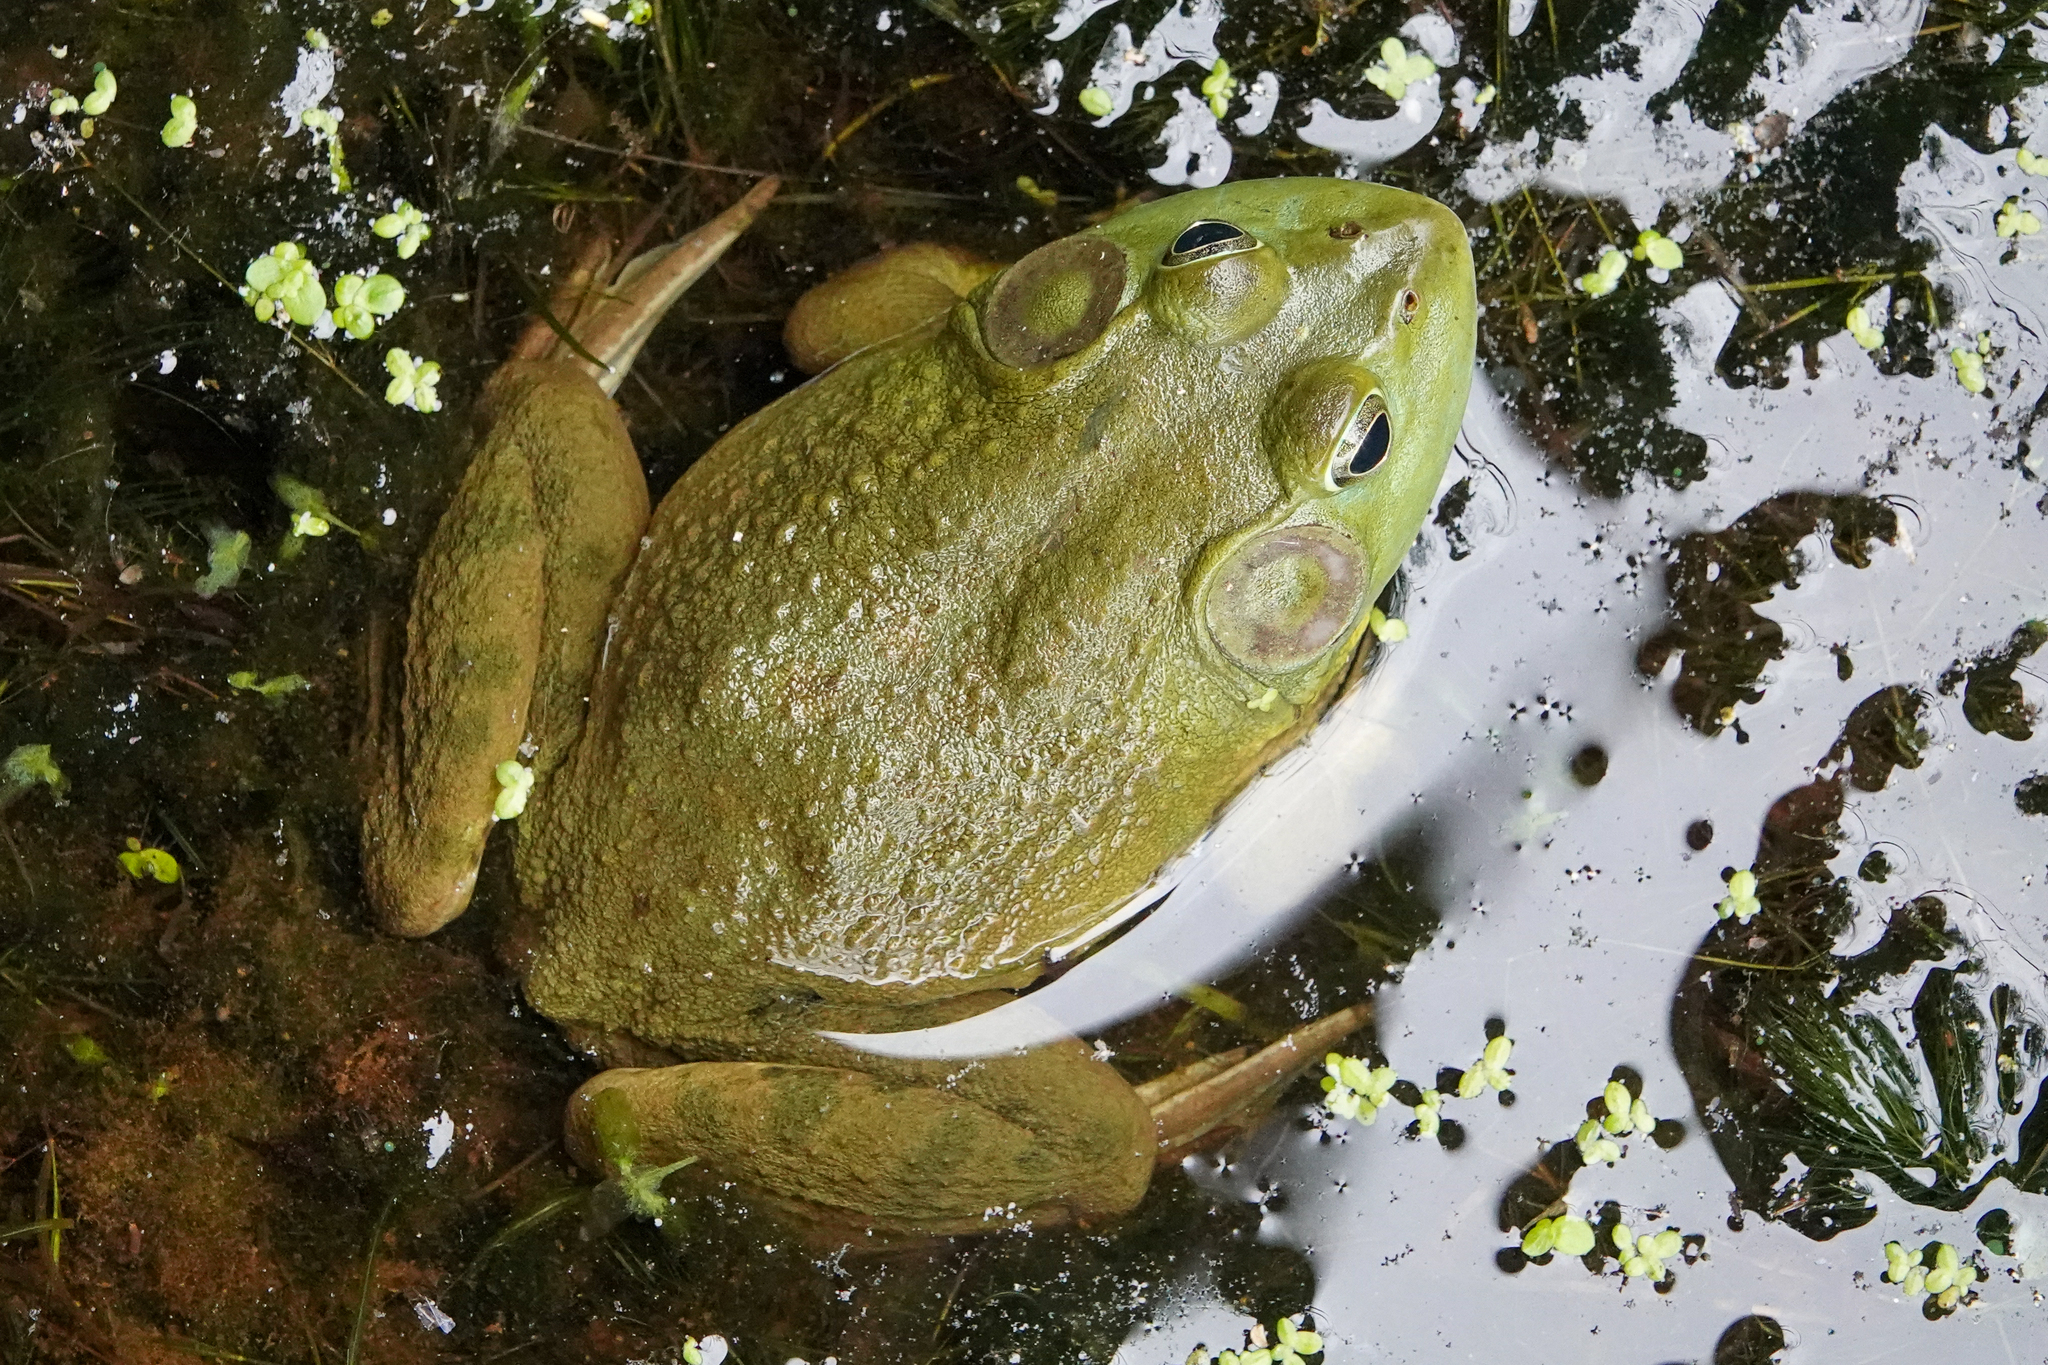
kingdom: Animalia
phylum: Chordata
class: Amphibia
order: Anura
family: Ranidae
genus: Lithobates
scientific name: Lithobates catesbeianus
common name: American bullfrog
